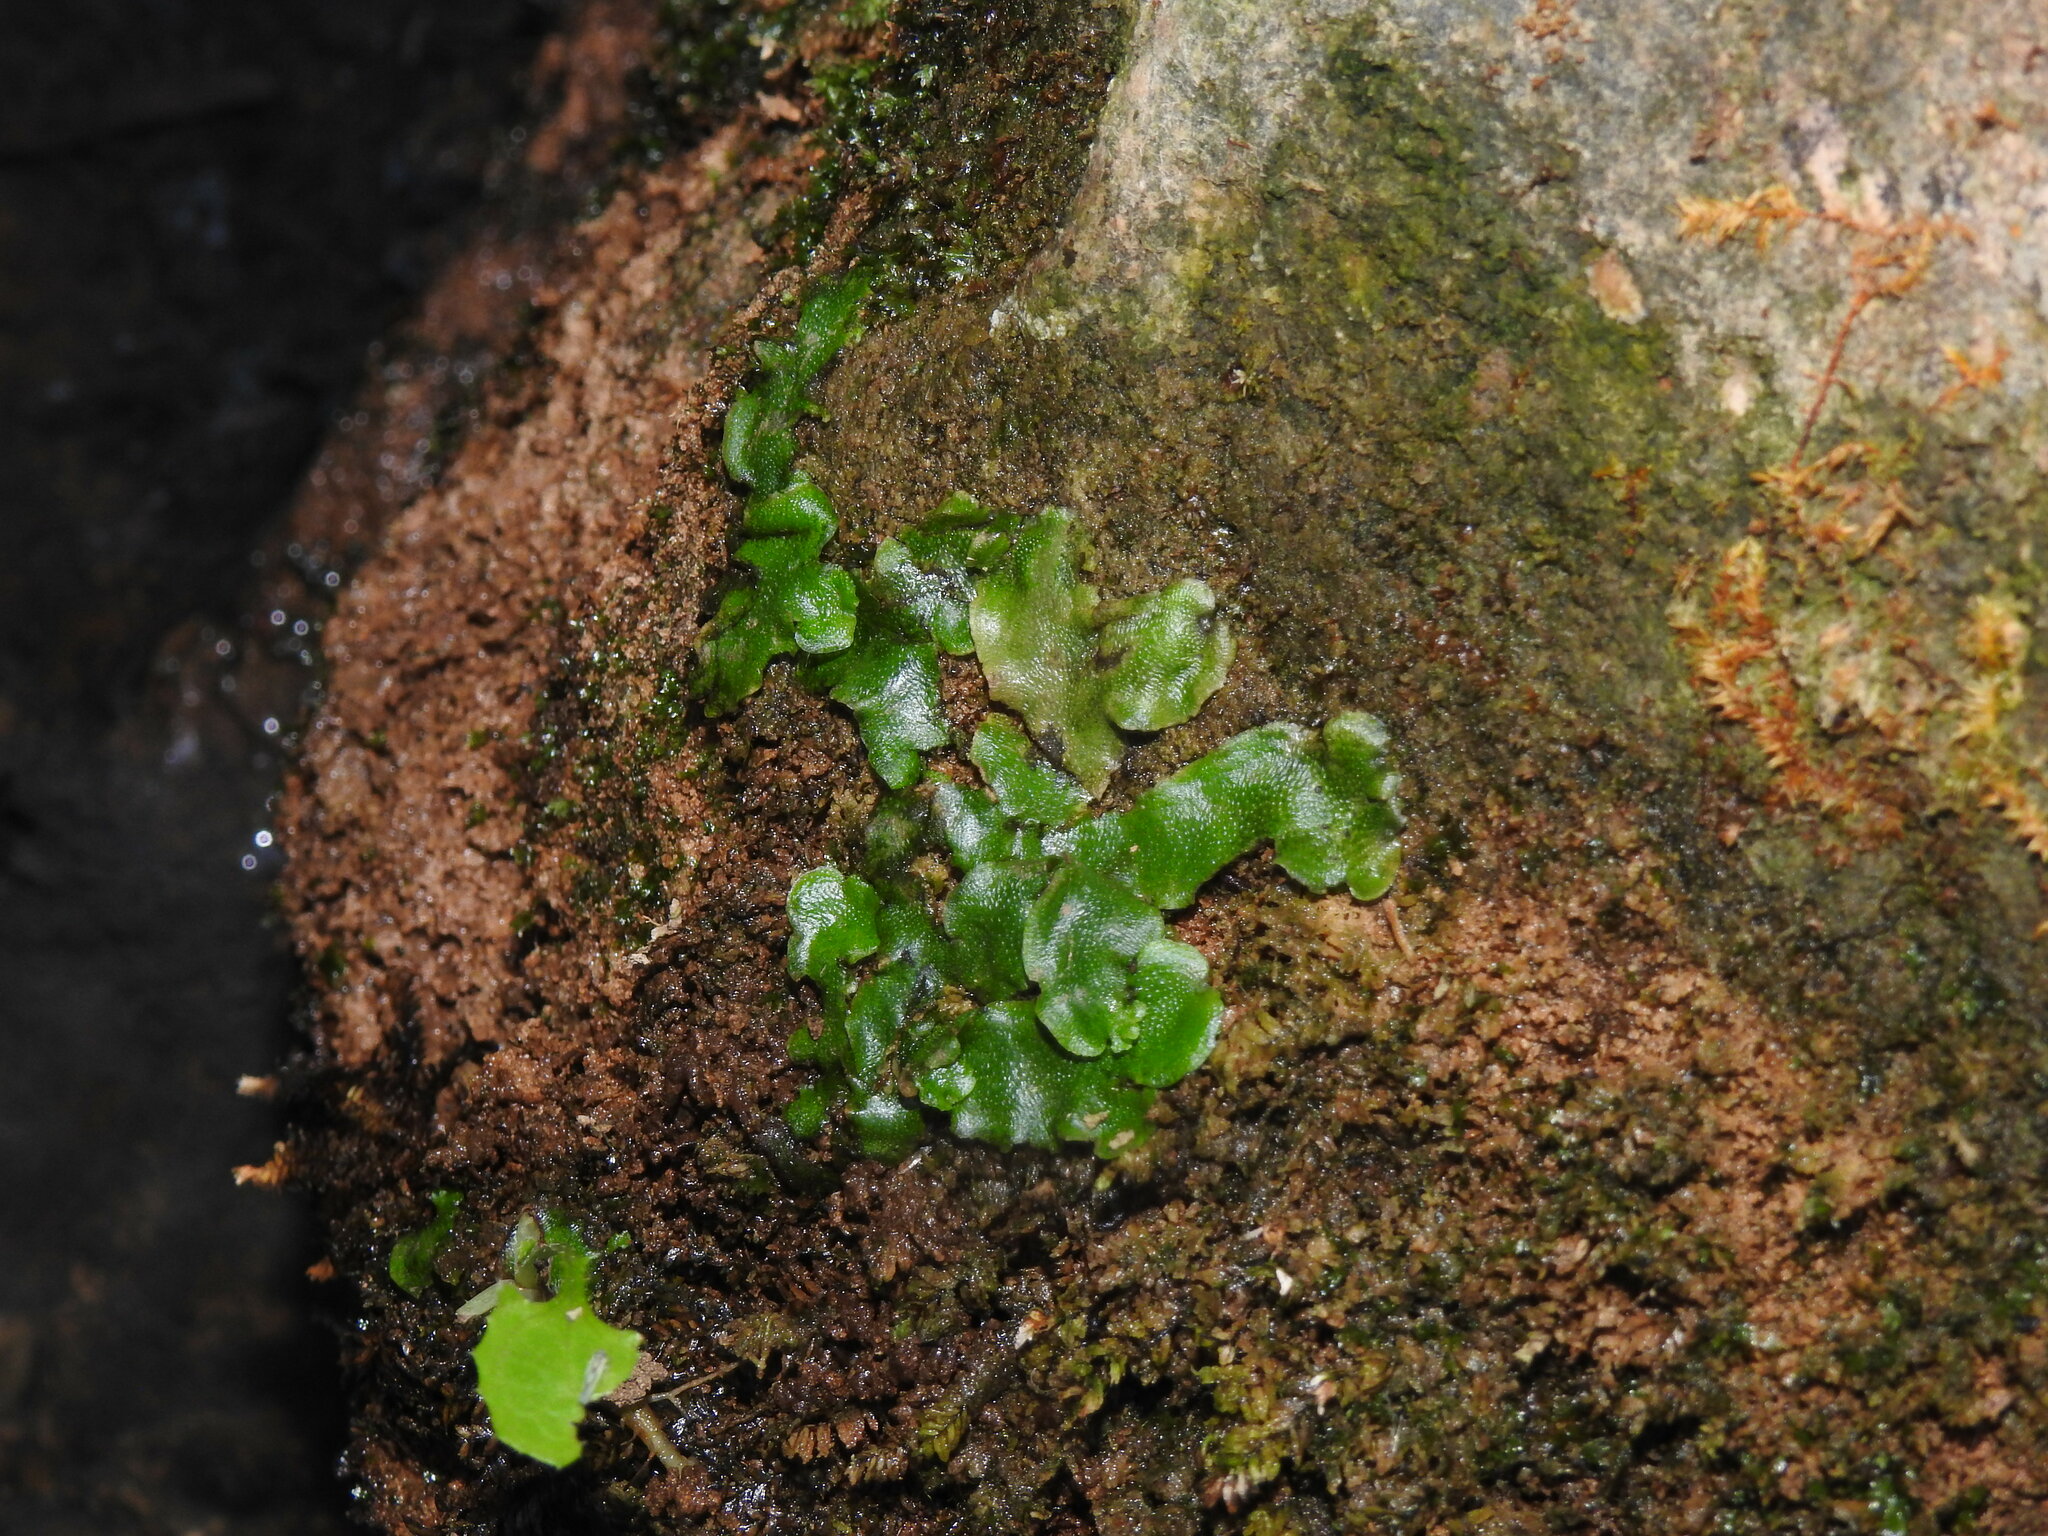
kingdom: Plantae
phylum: Marchantiophyta
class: Marchantiopsida
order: Lunulariales
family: Lunulariaceae
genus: Lunularia
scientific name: Lunularia cruciata
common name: Crescent-cup liverwort
